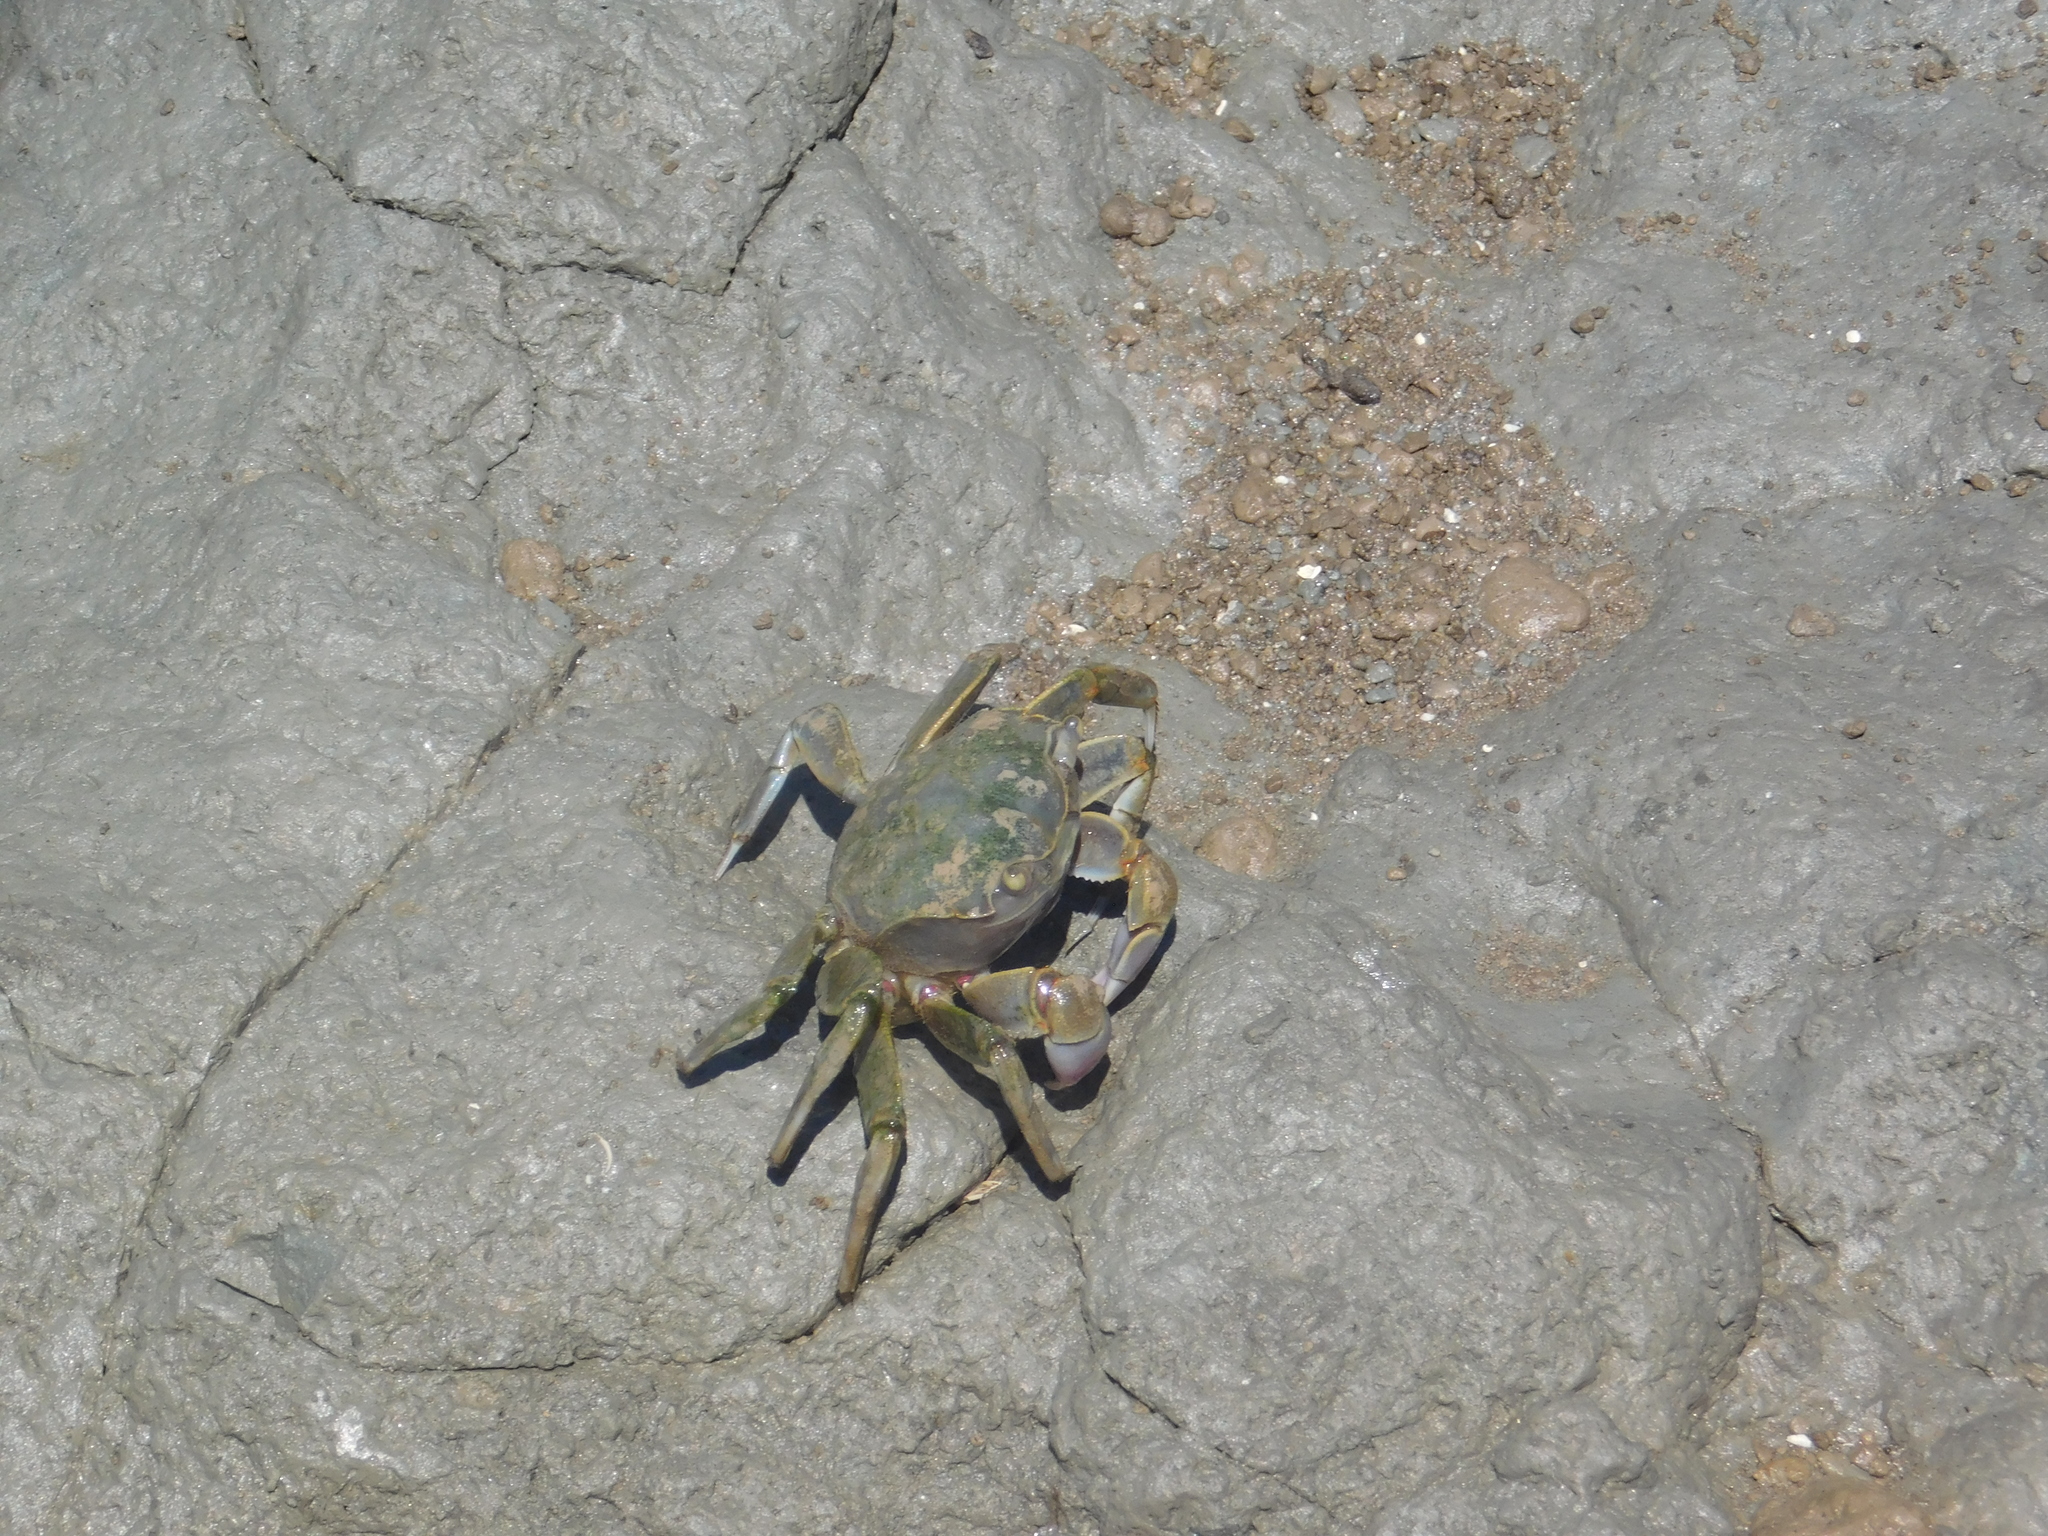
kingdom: Animalia
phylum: Arthropoda
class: Malacostraca
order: Decapoda
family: Varunidae
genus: Neohelice
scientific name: Neohelice granulata
